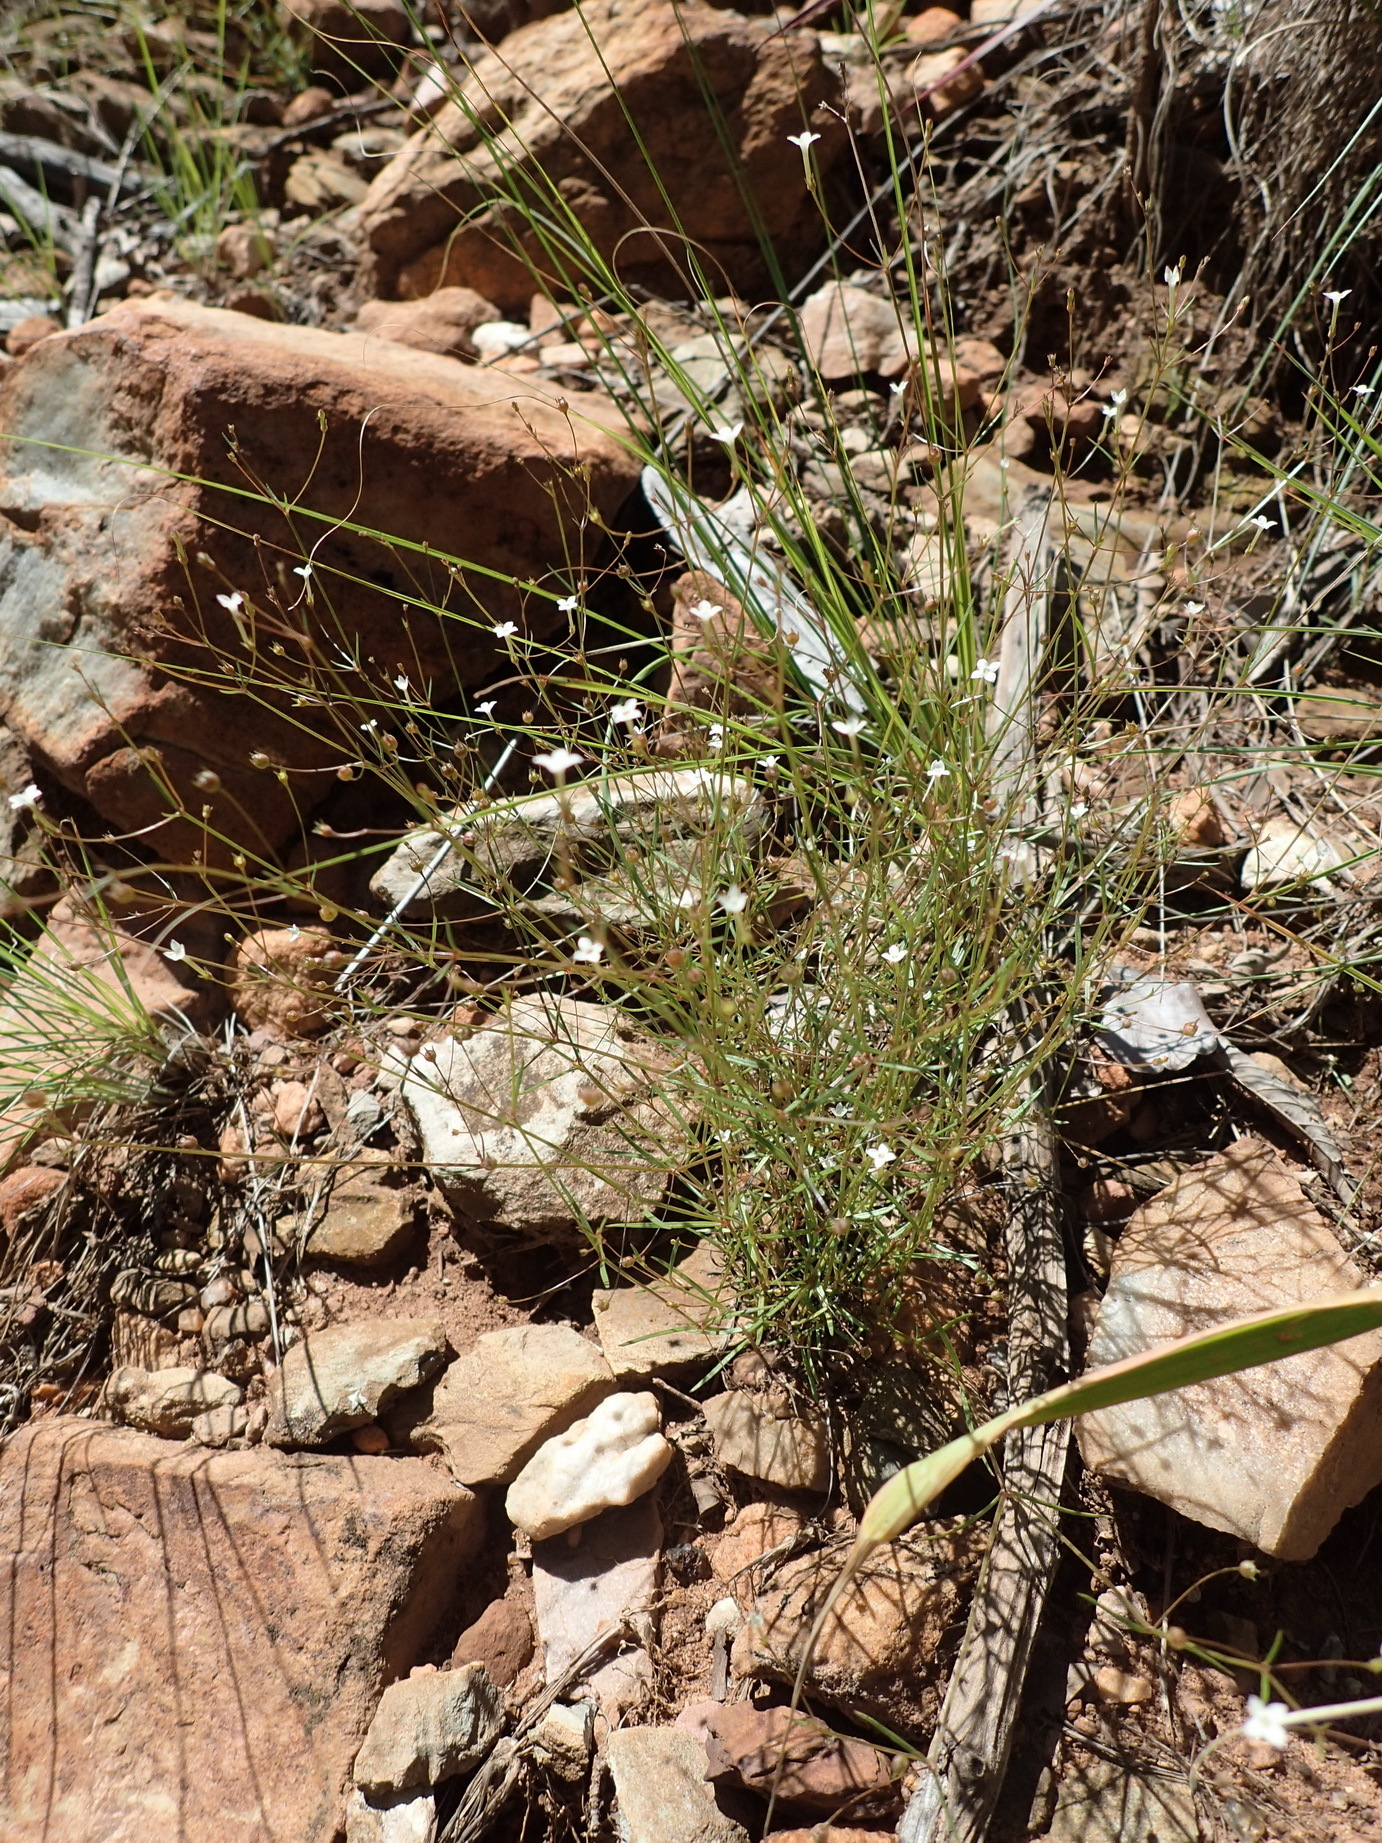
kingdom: Plantae
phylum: Tracheophyta
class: Magnoliopsida
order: Gentianales
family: Rubiaceae
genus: Oldenlandia
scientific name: Oldenlandia herbacea
